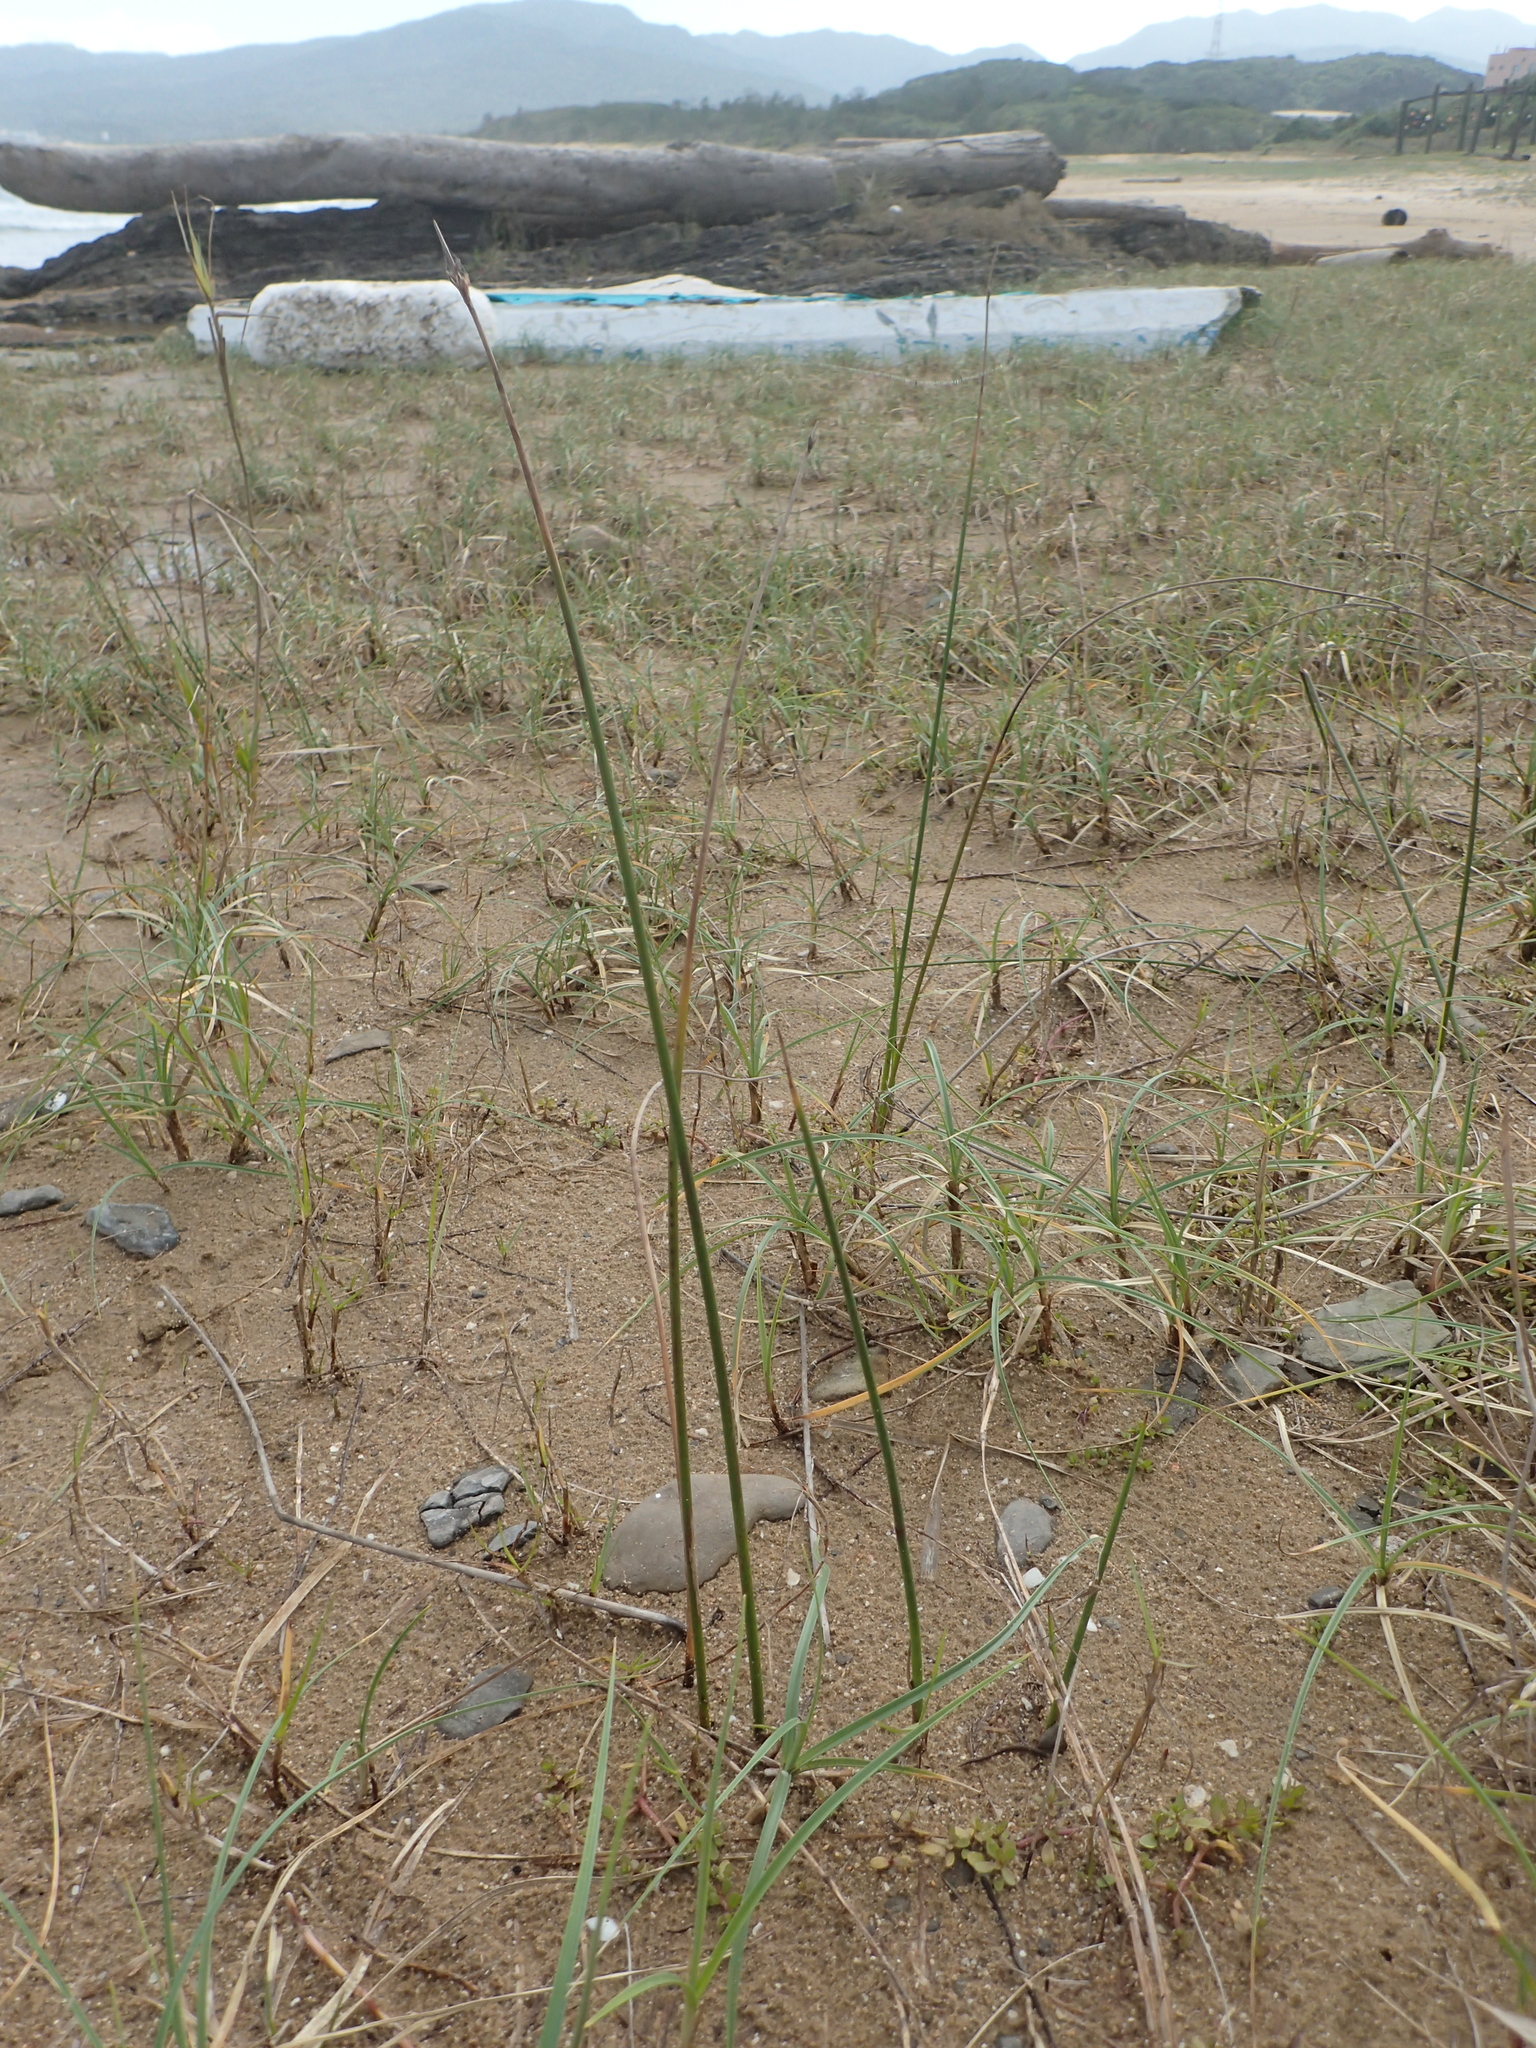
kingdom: Plantae
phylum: Tracheophyta
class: Liliopsida
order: Poales
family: Cyperaceae
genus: Schoenoplectus
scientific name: Schoenoplectus tabernaemontani
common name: Grey club-rush
